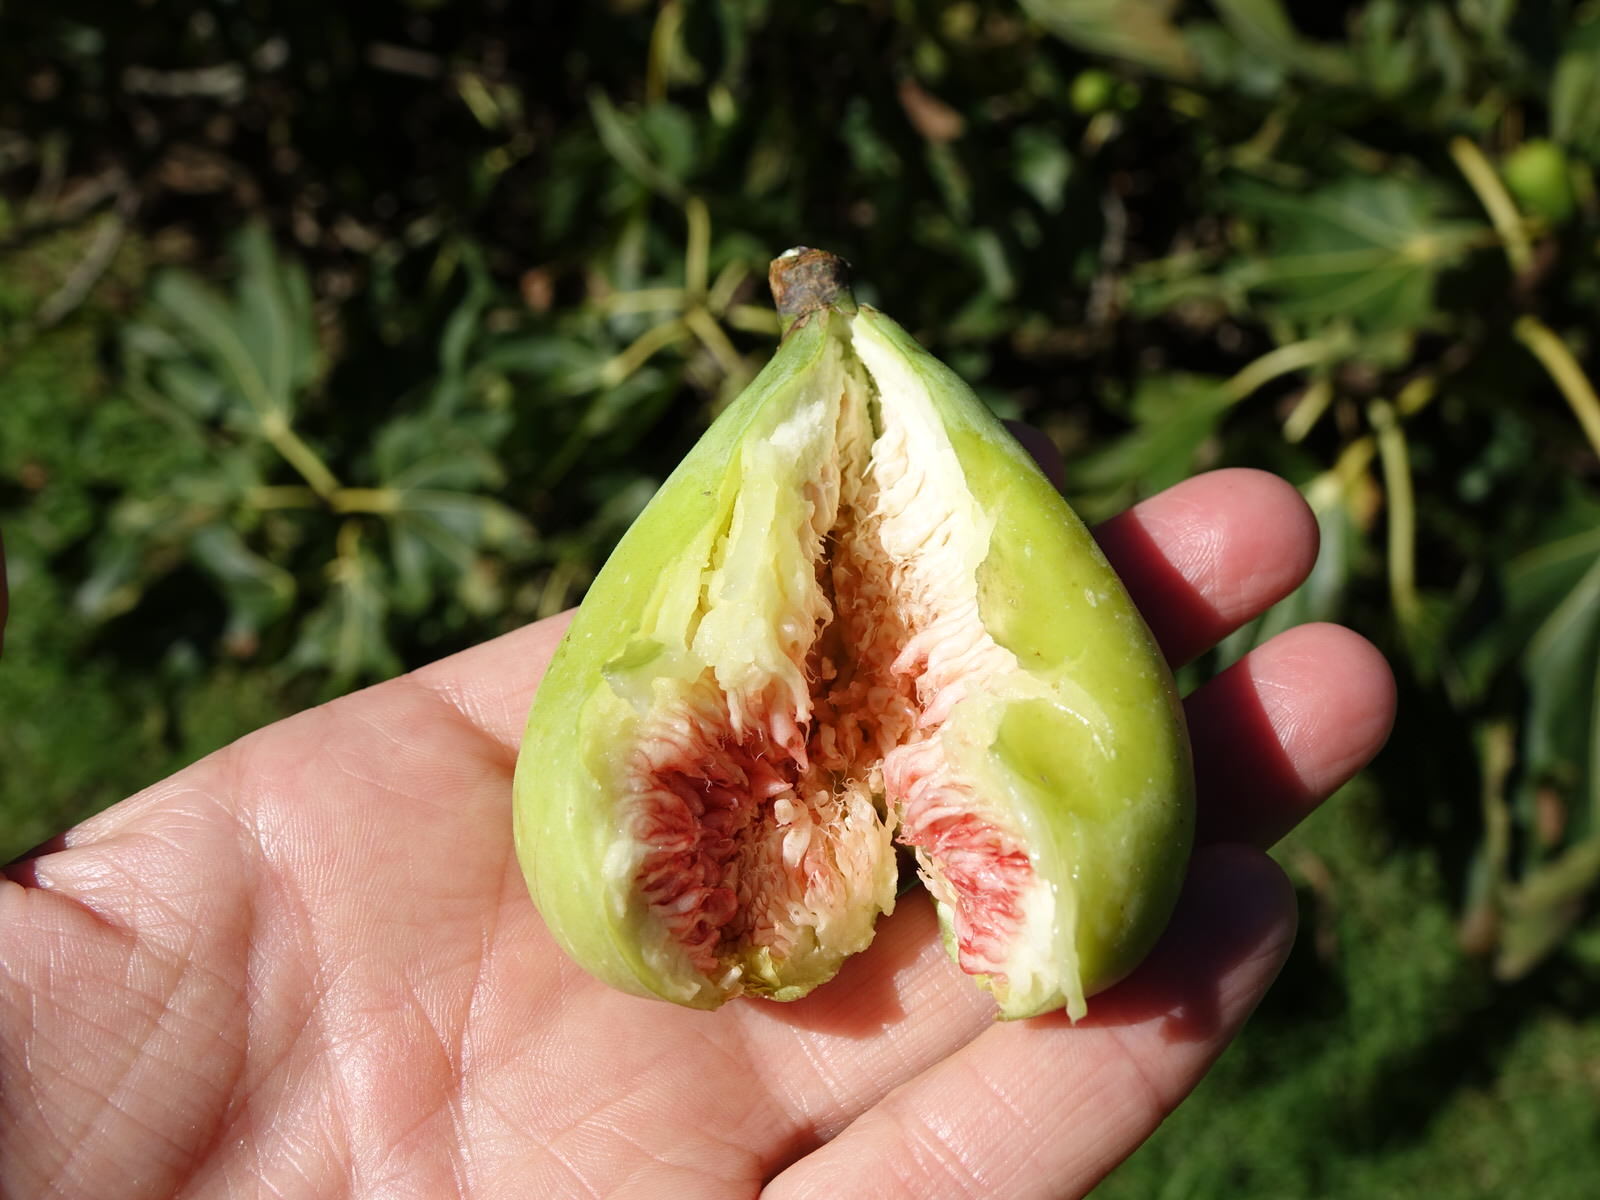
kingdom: Plantae
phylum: Tracheophyta
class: Magnoliopsida
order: Rosales
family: Moraceae
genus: Ficus
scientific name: Ficus carica
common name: Fig
